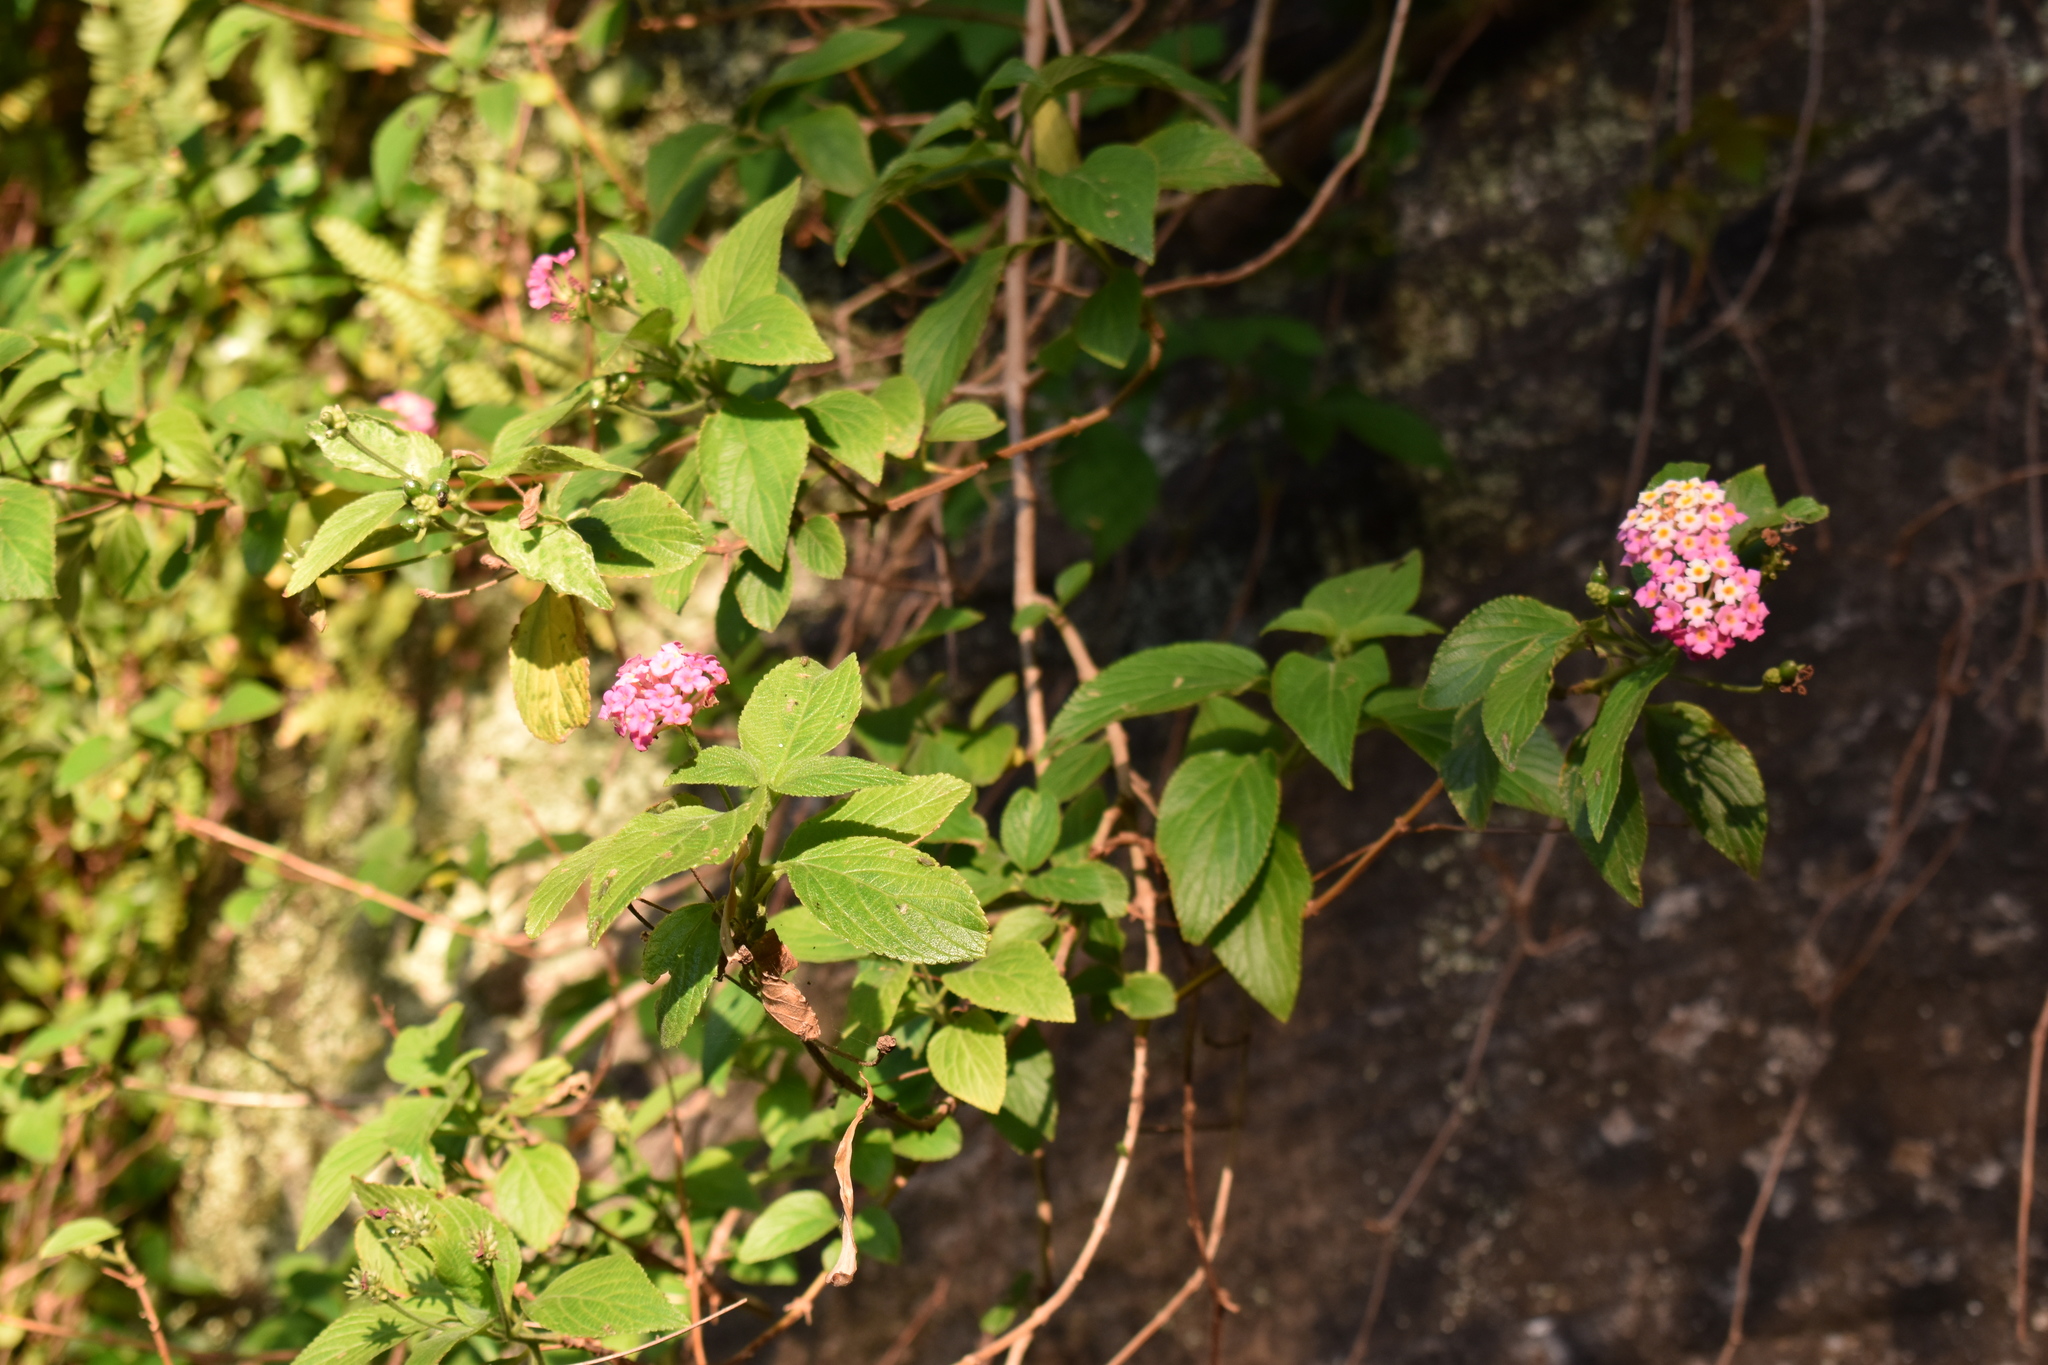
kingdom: Plantae
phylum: Tracheophyta
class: Magnoliopsida
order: Lamiales
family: Verbenaceae
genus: Lantana
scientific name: Lantana camara
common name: Lantana
